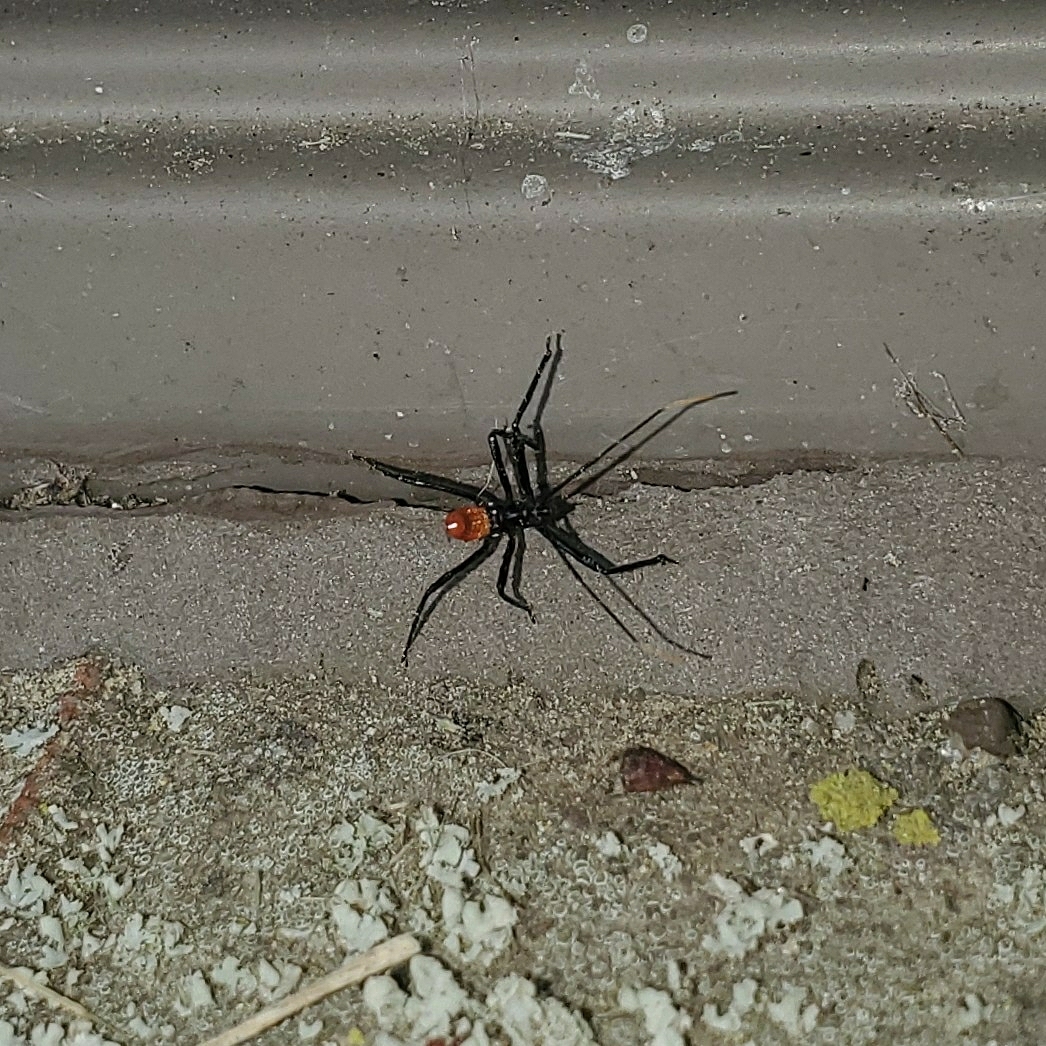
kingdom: Animalia
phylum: Arthropoda
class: Insecta
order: Hemiptera
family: Reduviidae
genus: Arilus
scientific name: Arilus cristatus
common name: North american wheel bug
